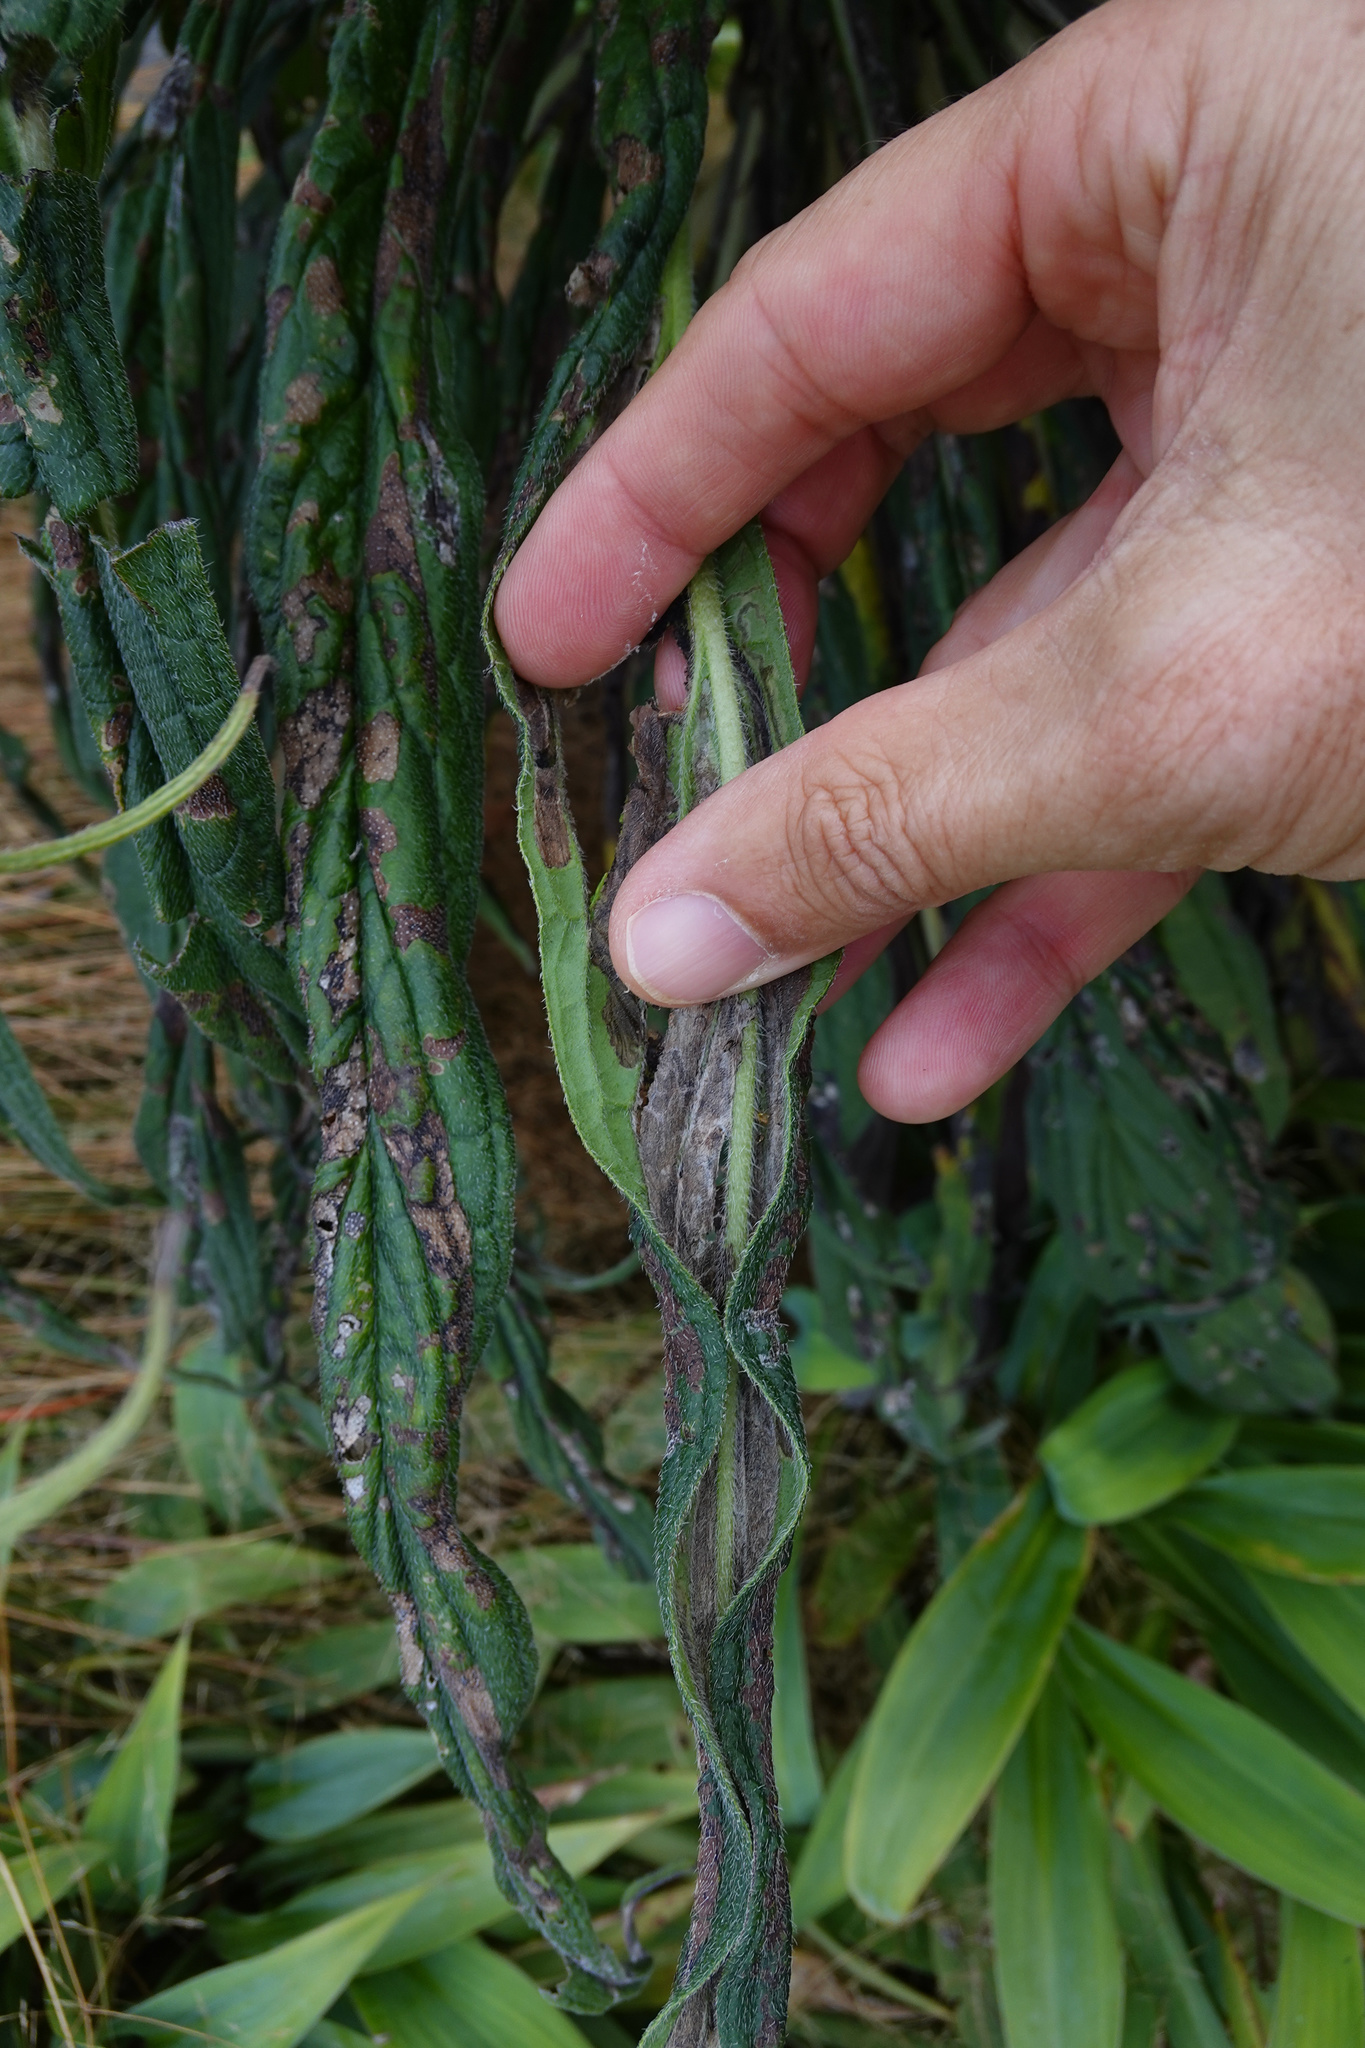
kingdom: Animalia
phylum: Arthropoda
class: Insecta
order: Lepidoptera
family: Gracillariidae
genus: Dialectica
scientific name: Dialectica scalariella
